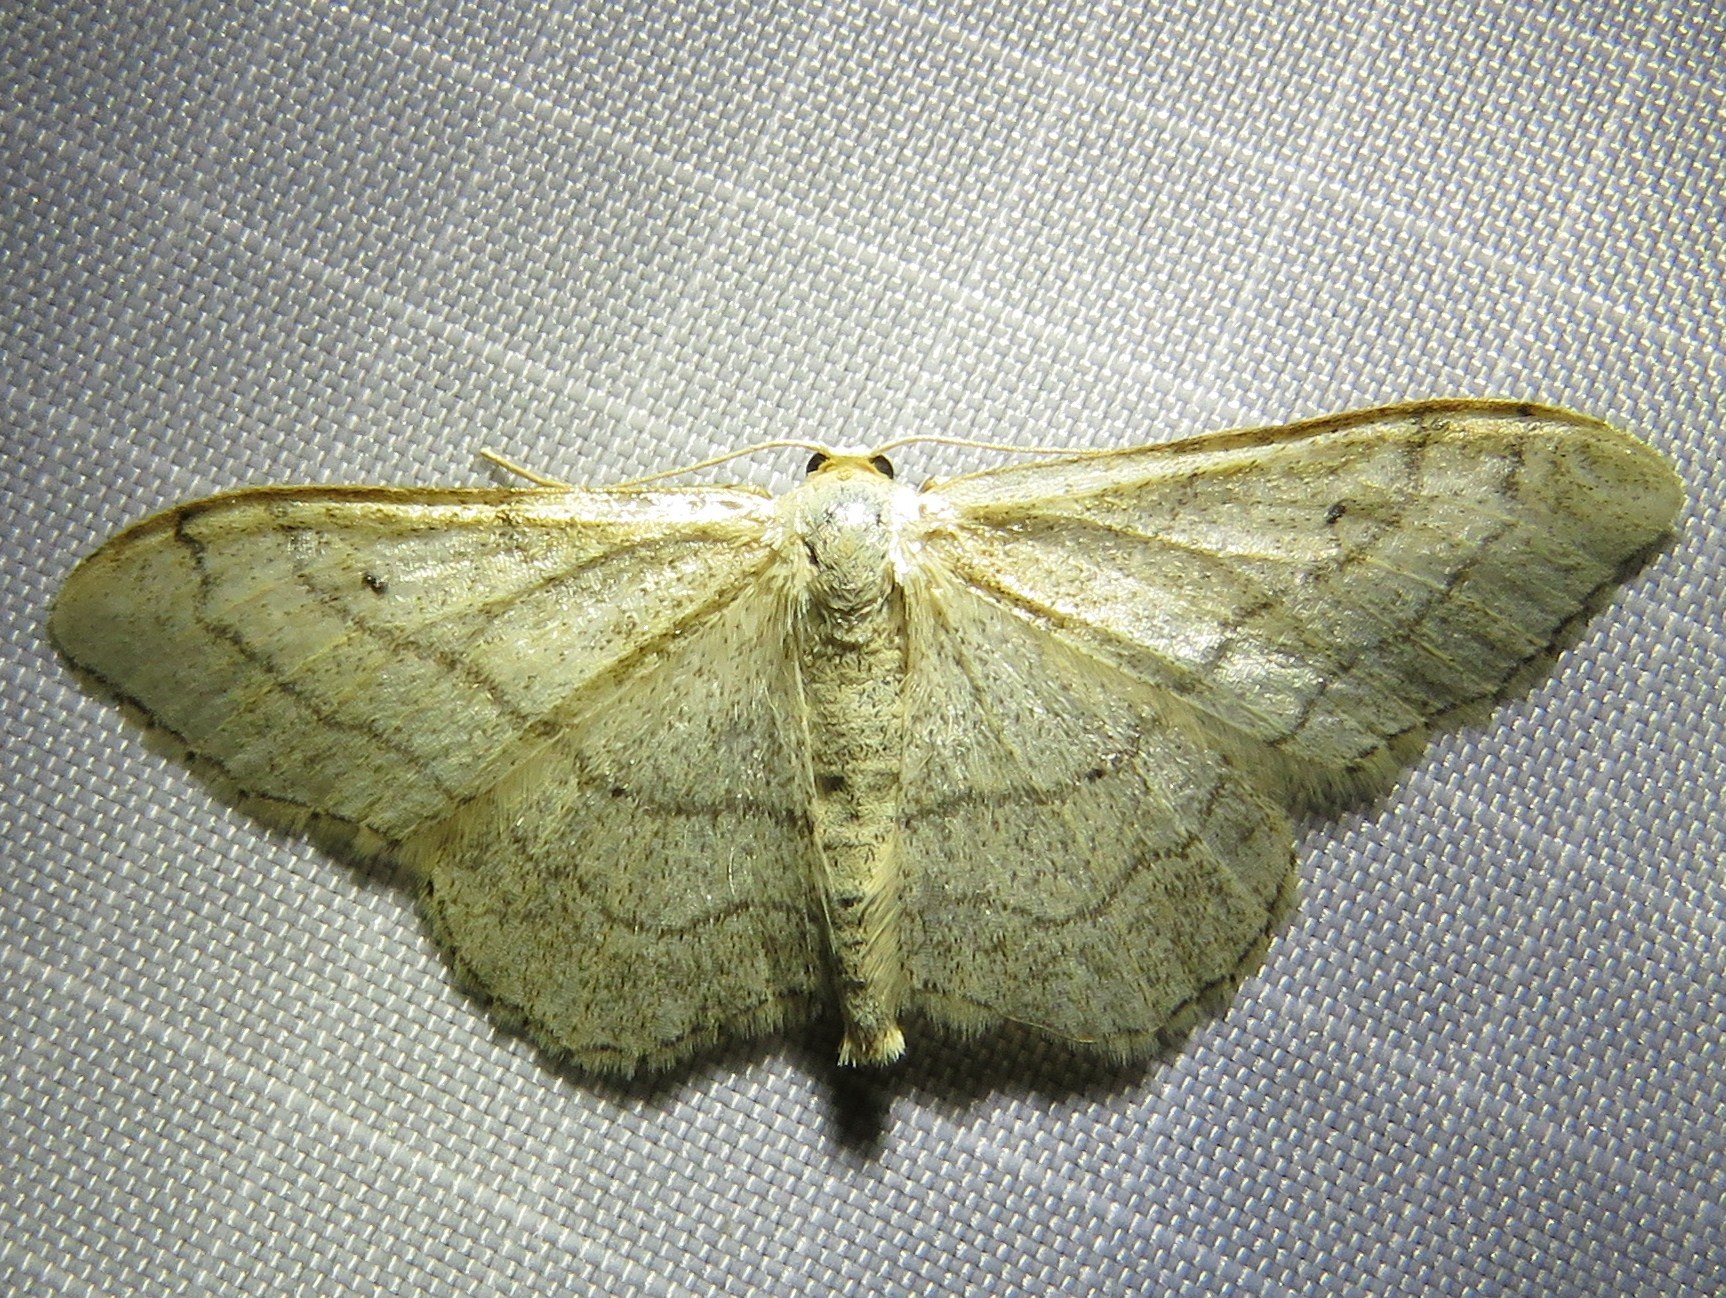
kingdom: Animalia
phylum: Arthropoda
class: Insecta
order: Lepidoptera
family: Geometridae
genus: Idaea
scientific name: Idaea aversata
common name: Riband wave
